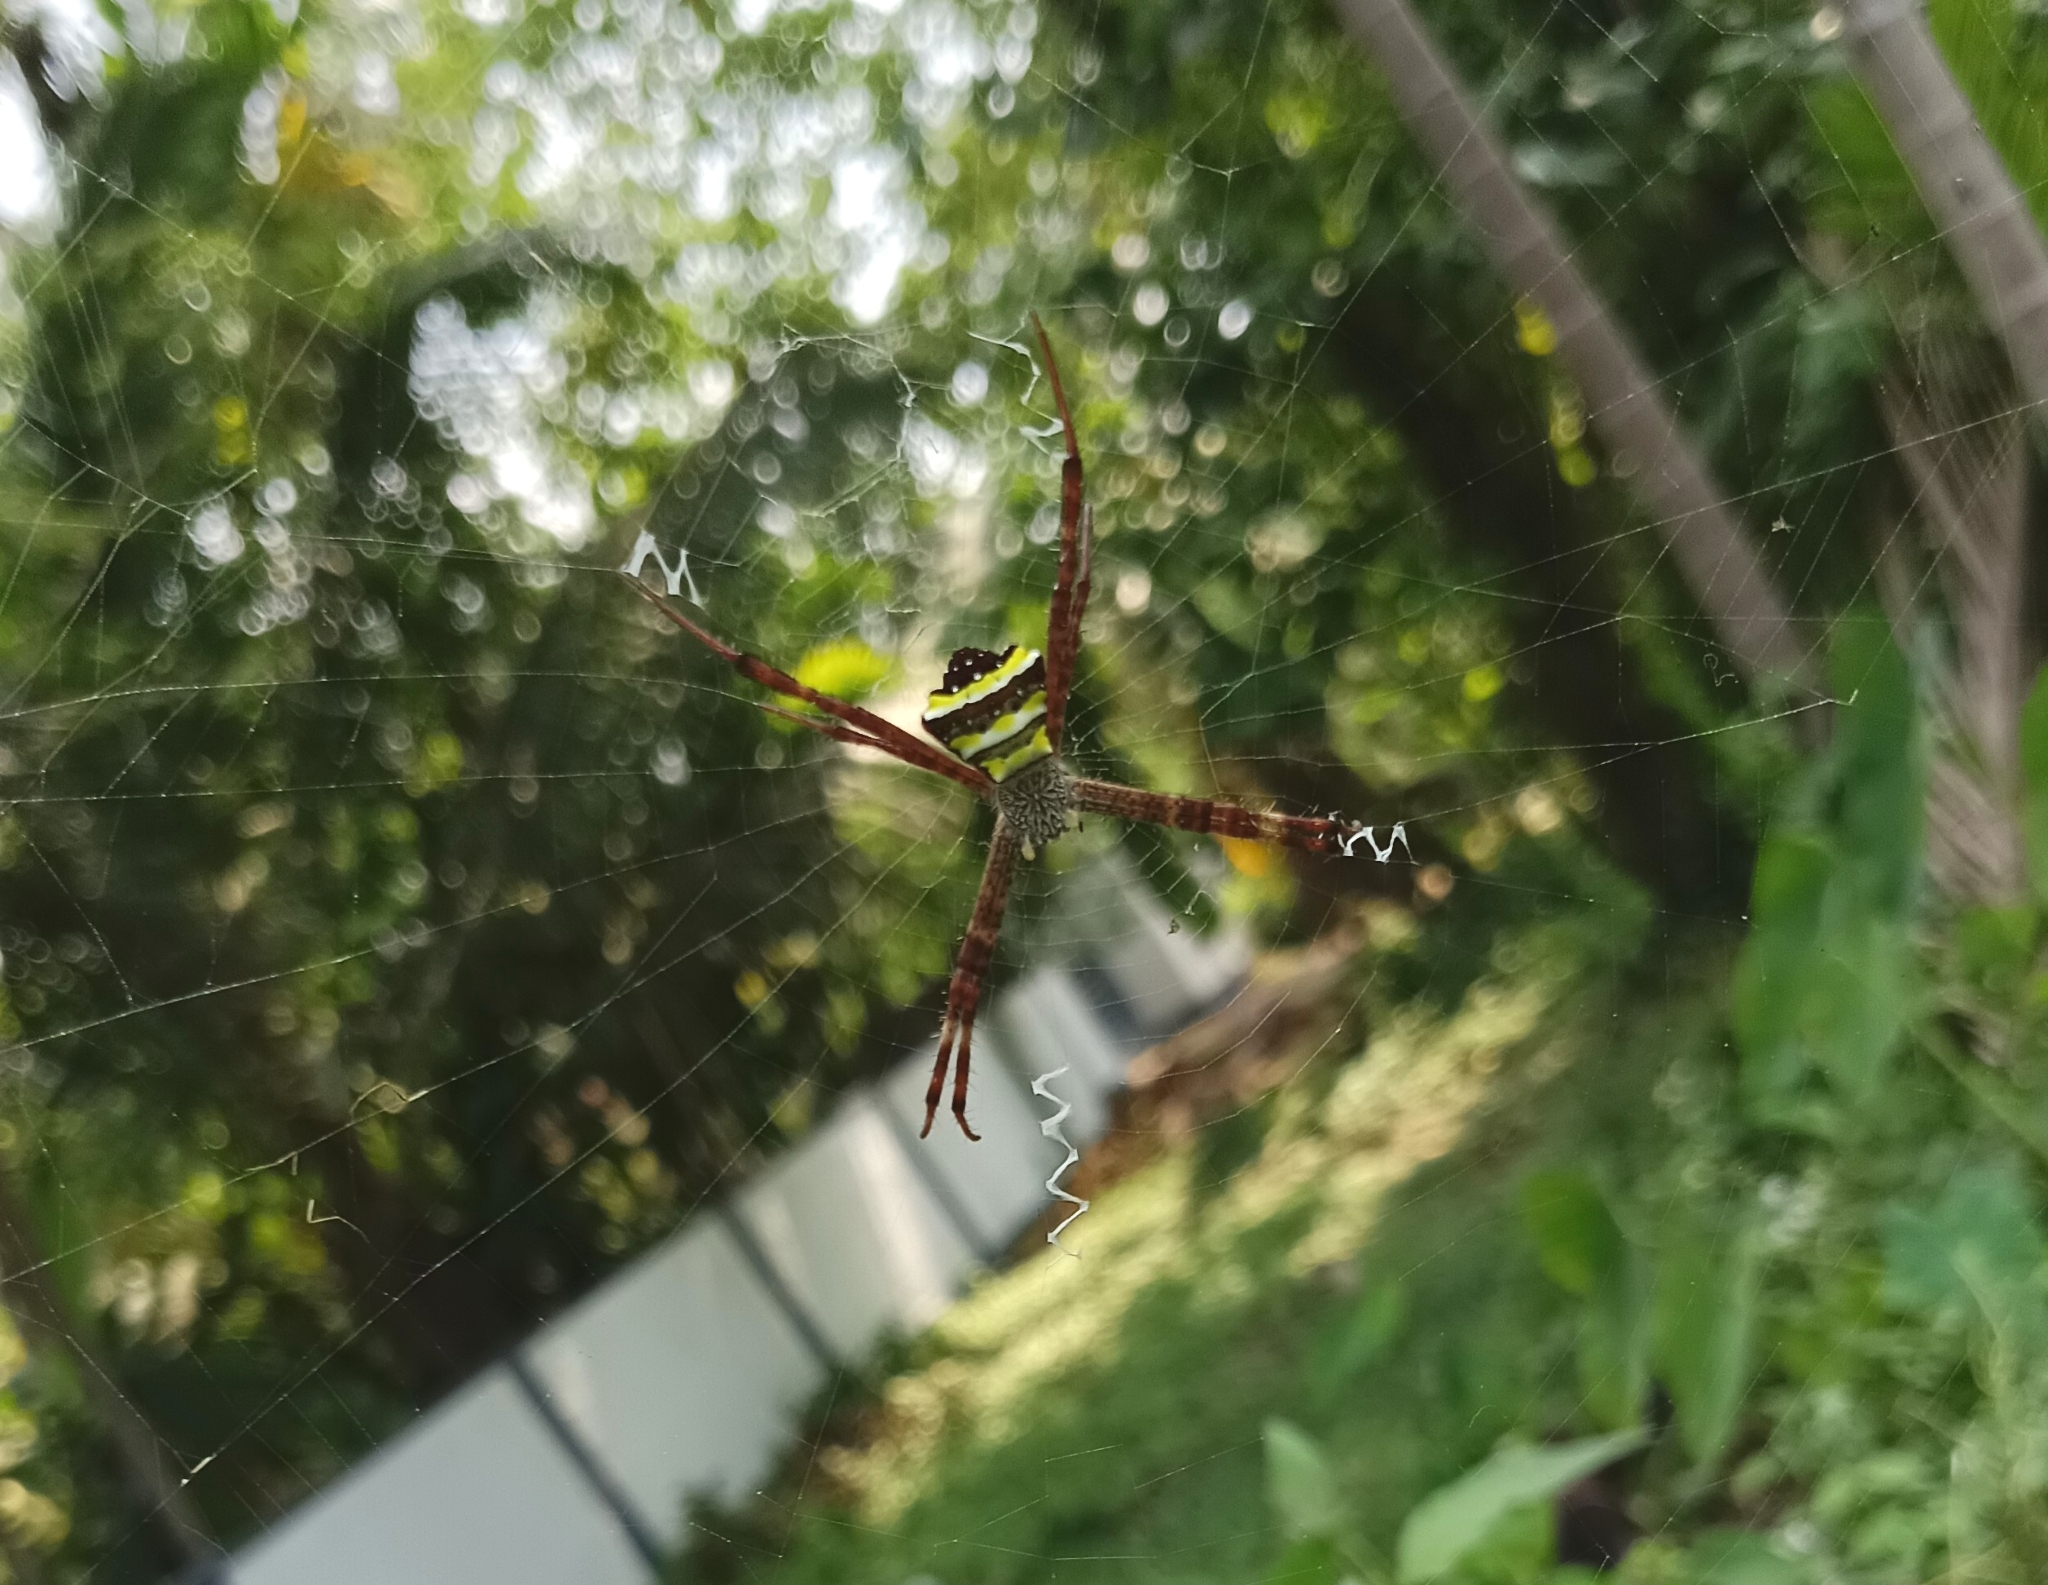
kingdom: Animalia
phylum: Arthropoda
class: Arachnida
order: Araneae
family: Araneidae
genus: Argiope
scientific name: Argiope pulchella
